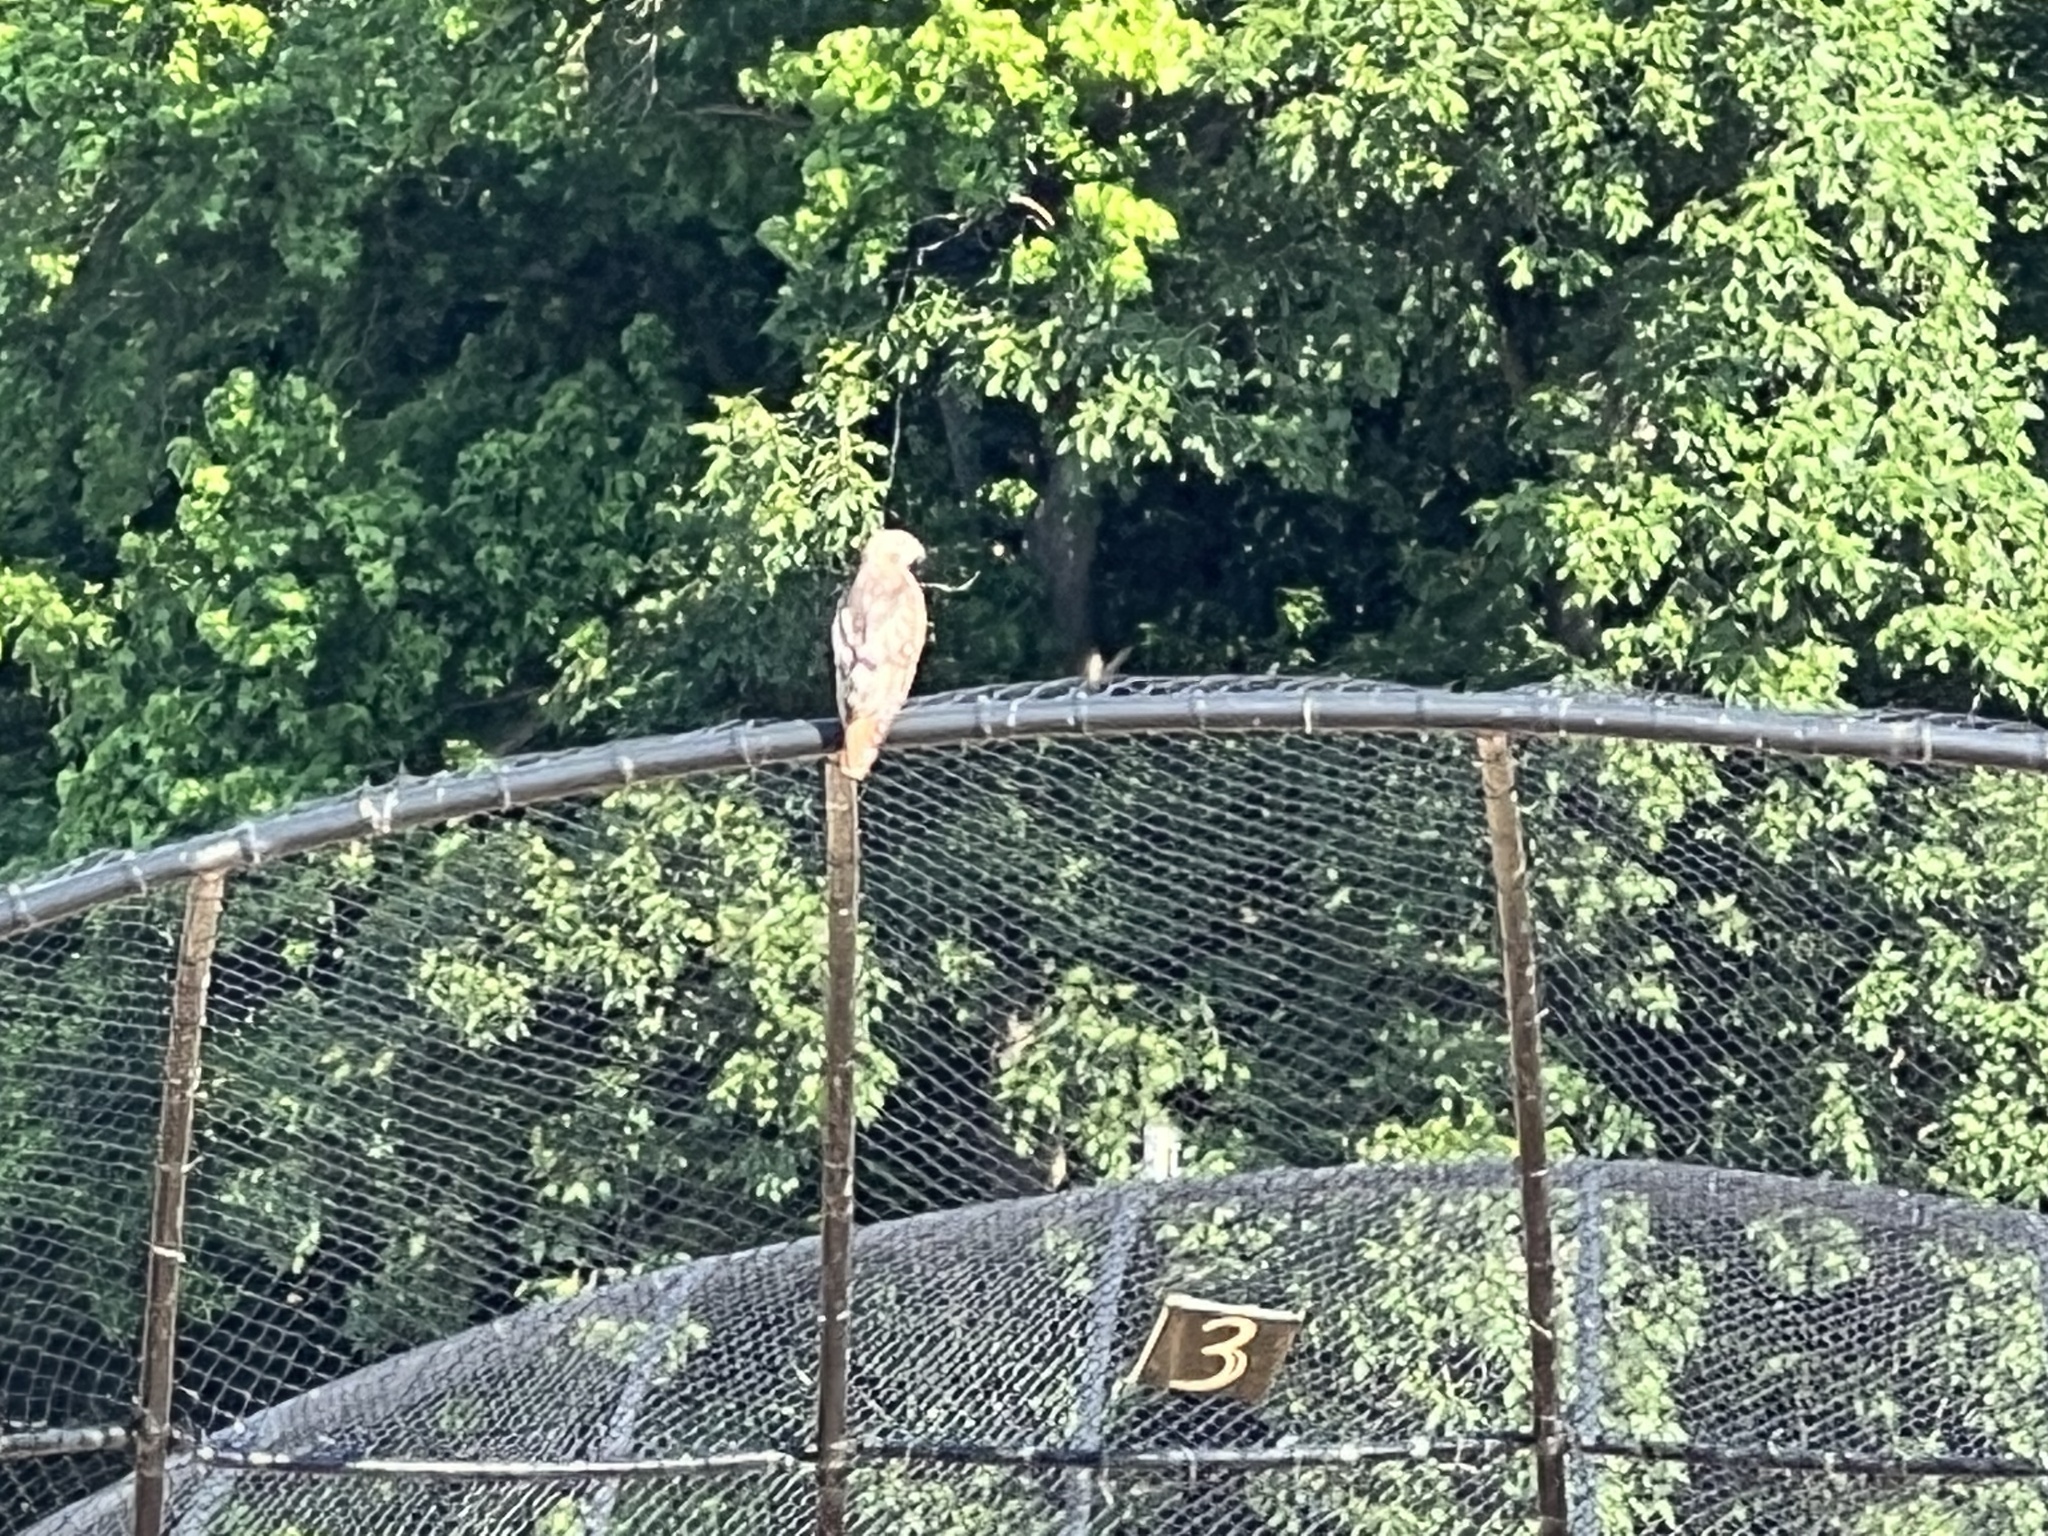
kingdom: Animalia
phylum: Chordata
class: Aves
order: Accipitriformes
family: Accipitridae
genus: Buteo
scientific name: Buteo jamaicensis
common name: Red-tailed hawk
